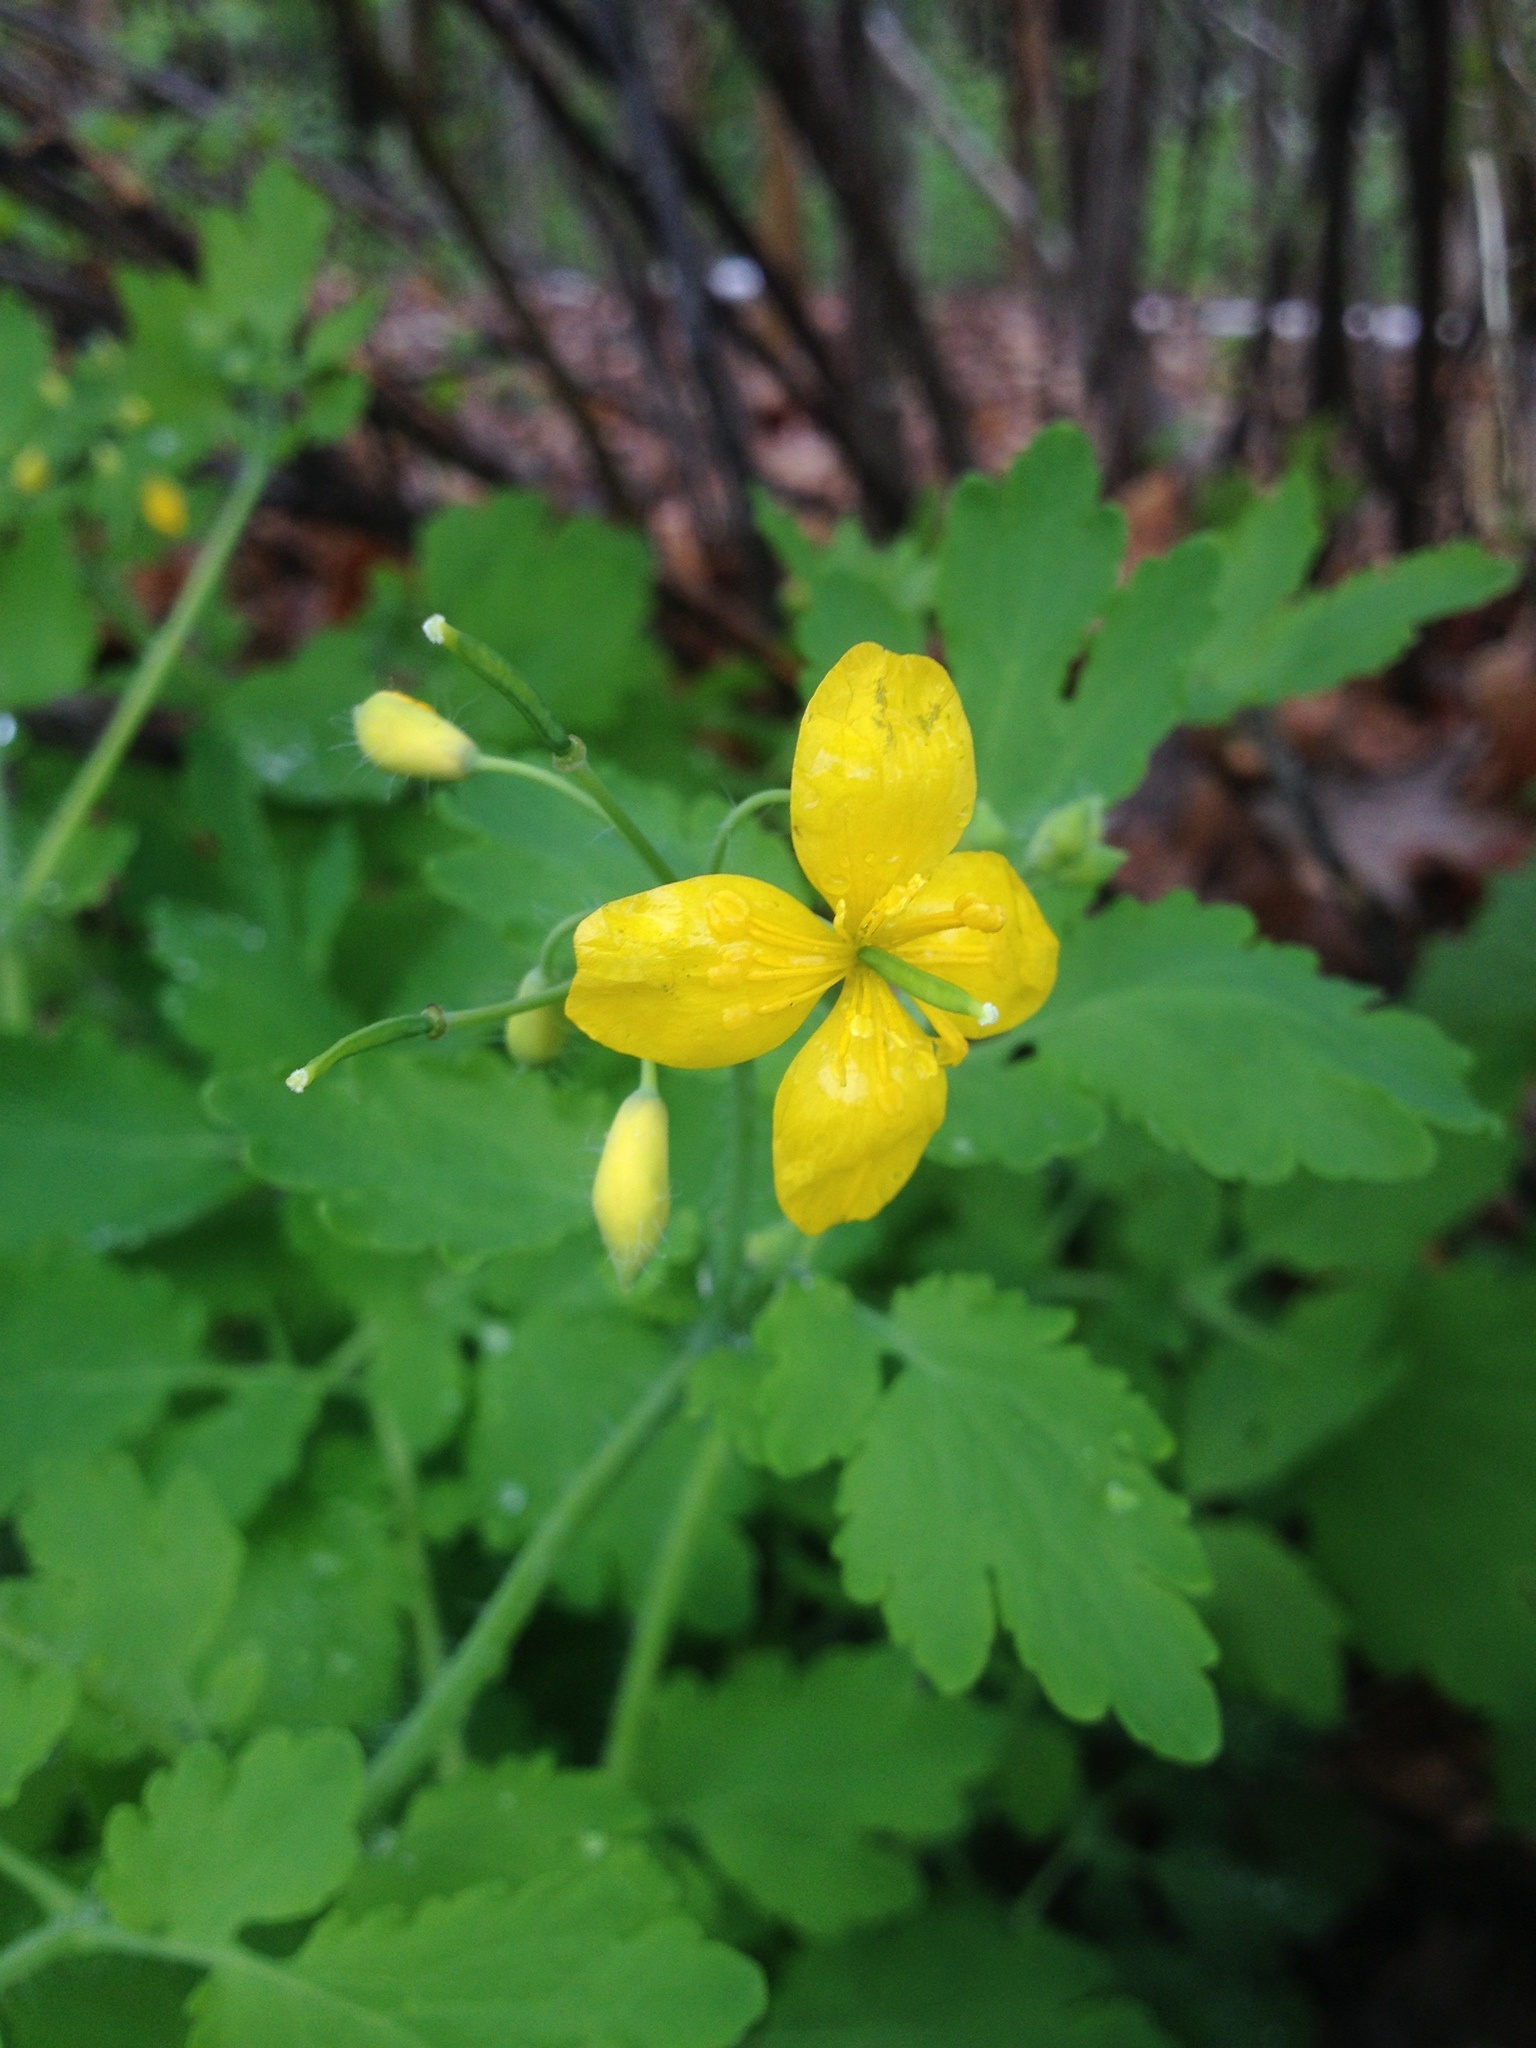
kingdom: Plantae
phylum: Tracheophyta
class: Magnoliopsida
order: Ranunculales
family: Papaveraceae
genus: Chelidonium
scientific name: Chelidonium majus
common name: Greater celandine
